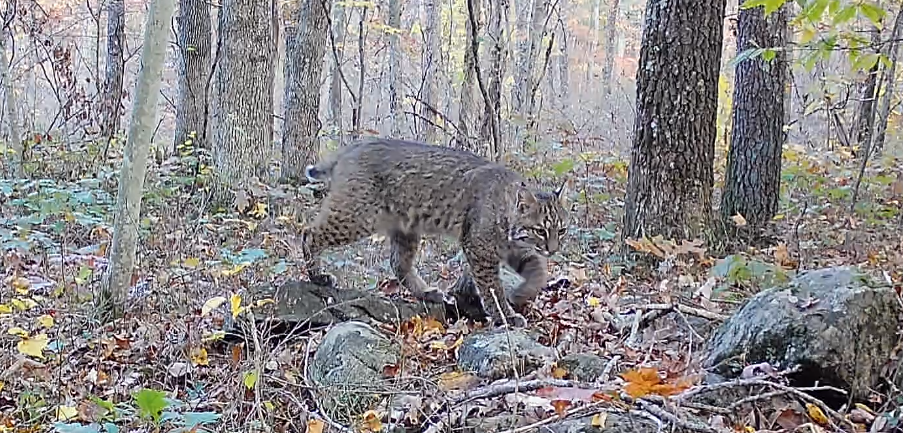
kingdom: Animalia
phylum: Chordata
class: Mammalia
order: Carnivora
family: Felidae
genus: Lynx
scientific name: Lynx rufus
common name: Bobcat
